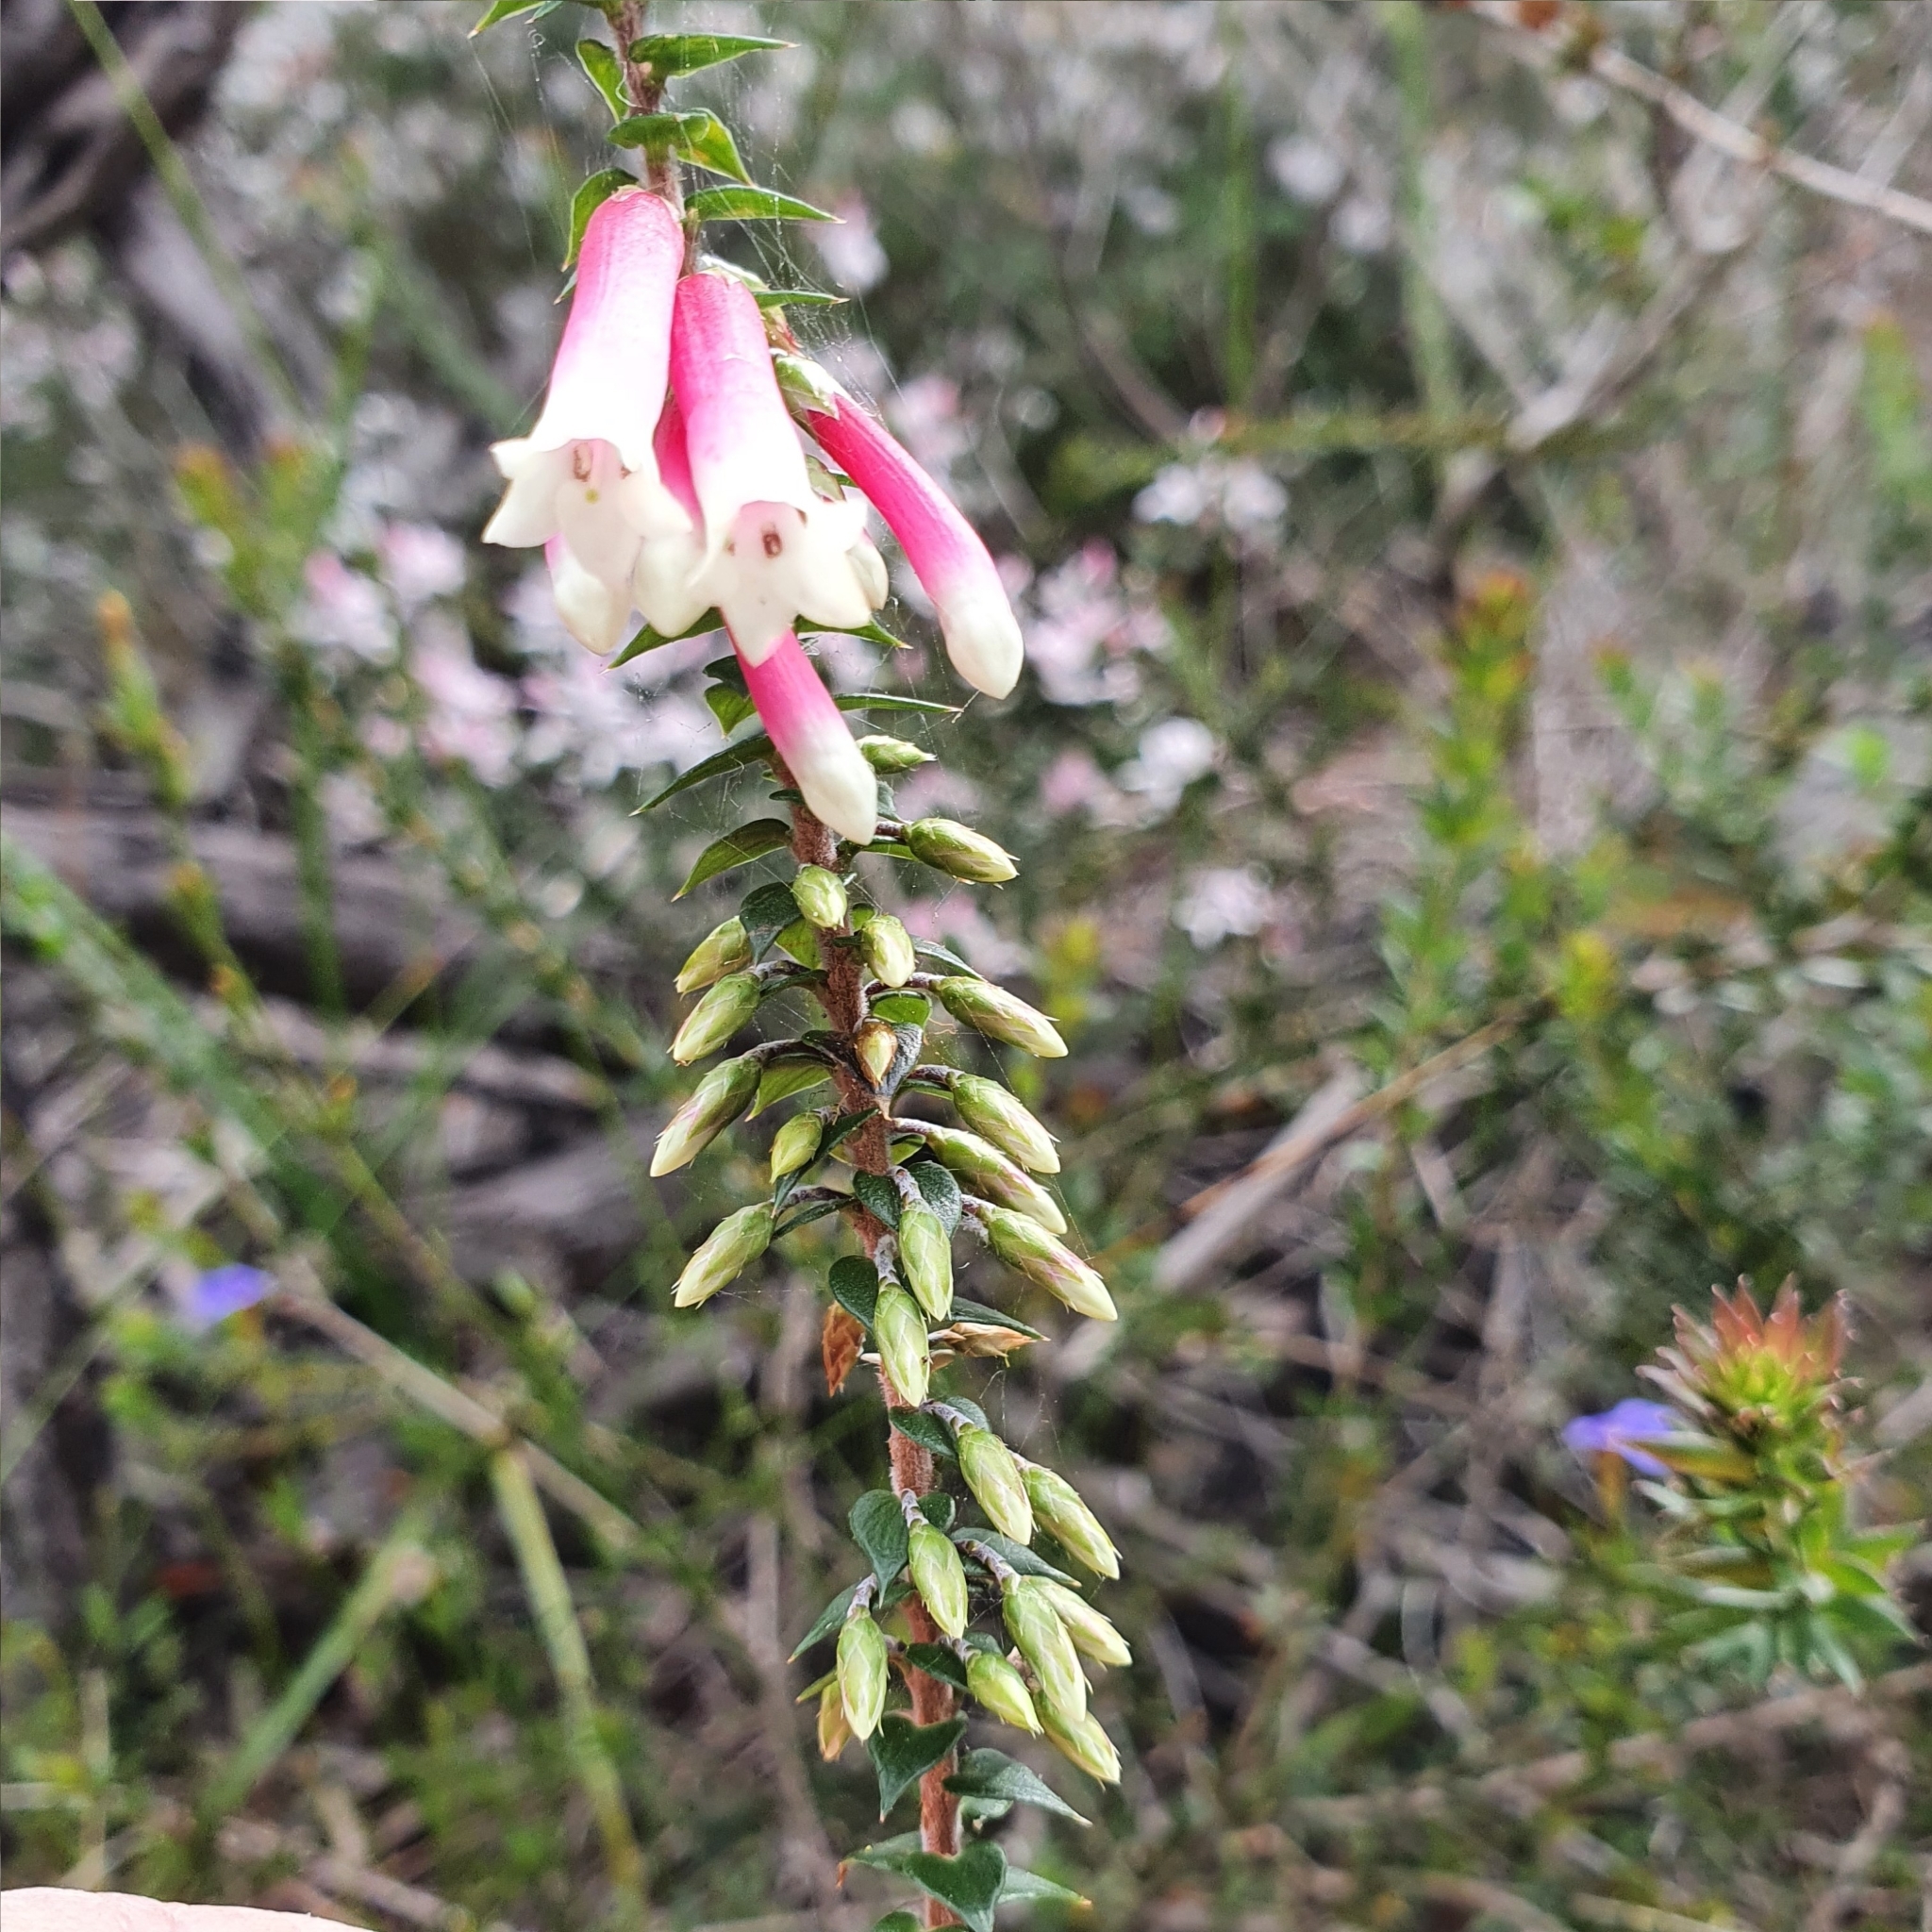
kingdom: Plantae
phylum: Tracheophyta
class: Magnoliopsida
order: Ericales
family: Ericaceae
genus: Epacris
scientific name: Epacris longiflora
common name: Fuchsia-heath
